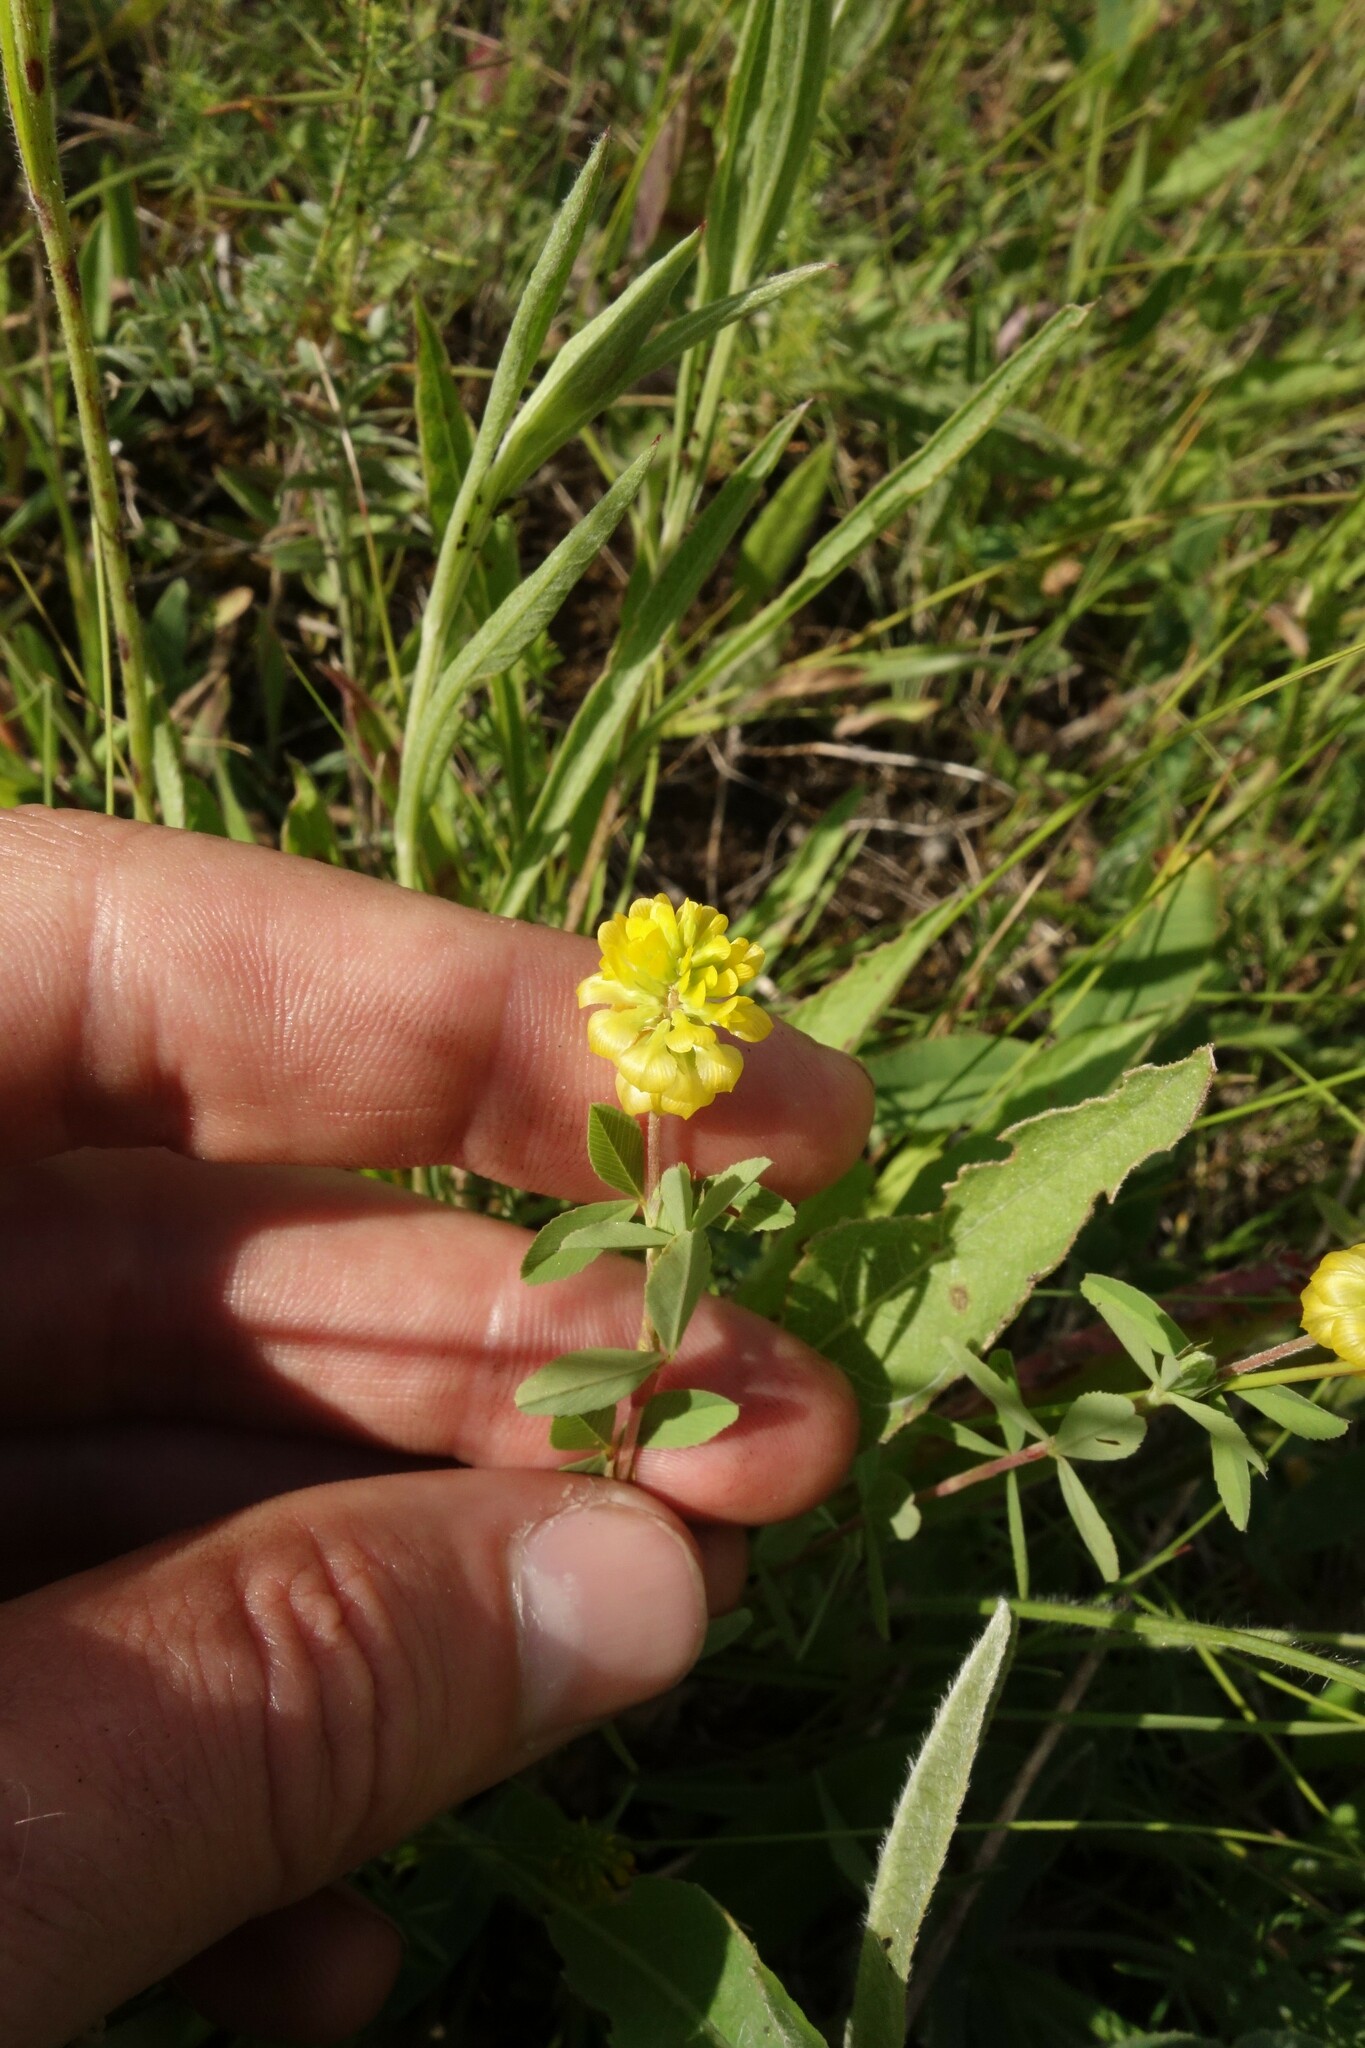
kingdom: Plantae
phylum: Tracheophyta
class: Magnoliopsida
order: Fabales
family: Fabaceae
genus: Trifolium
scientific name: Trifolium aureum
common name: Golden clover
